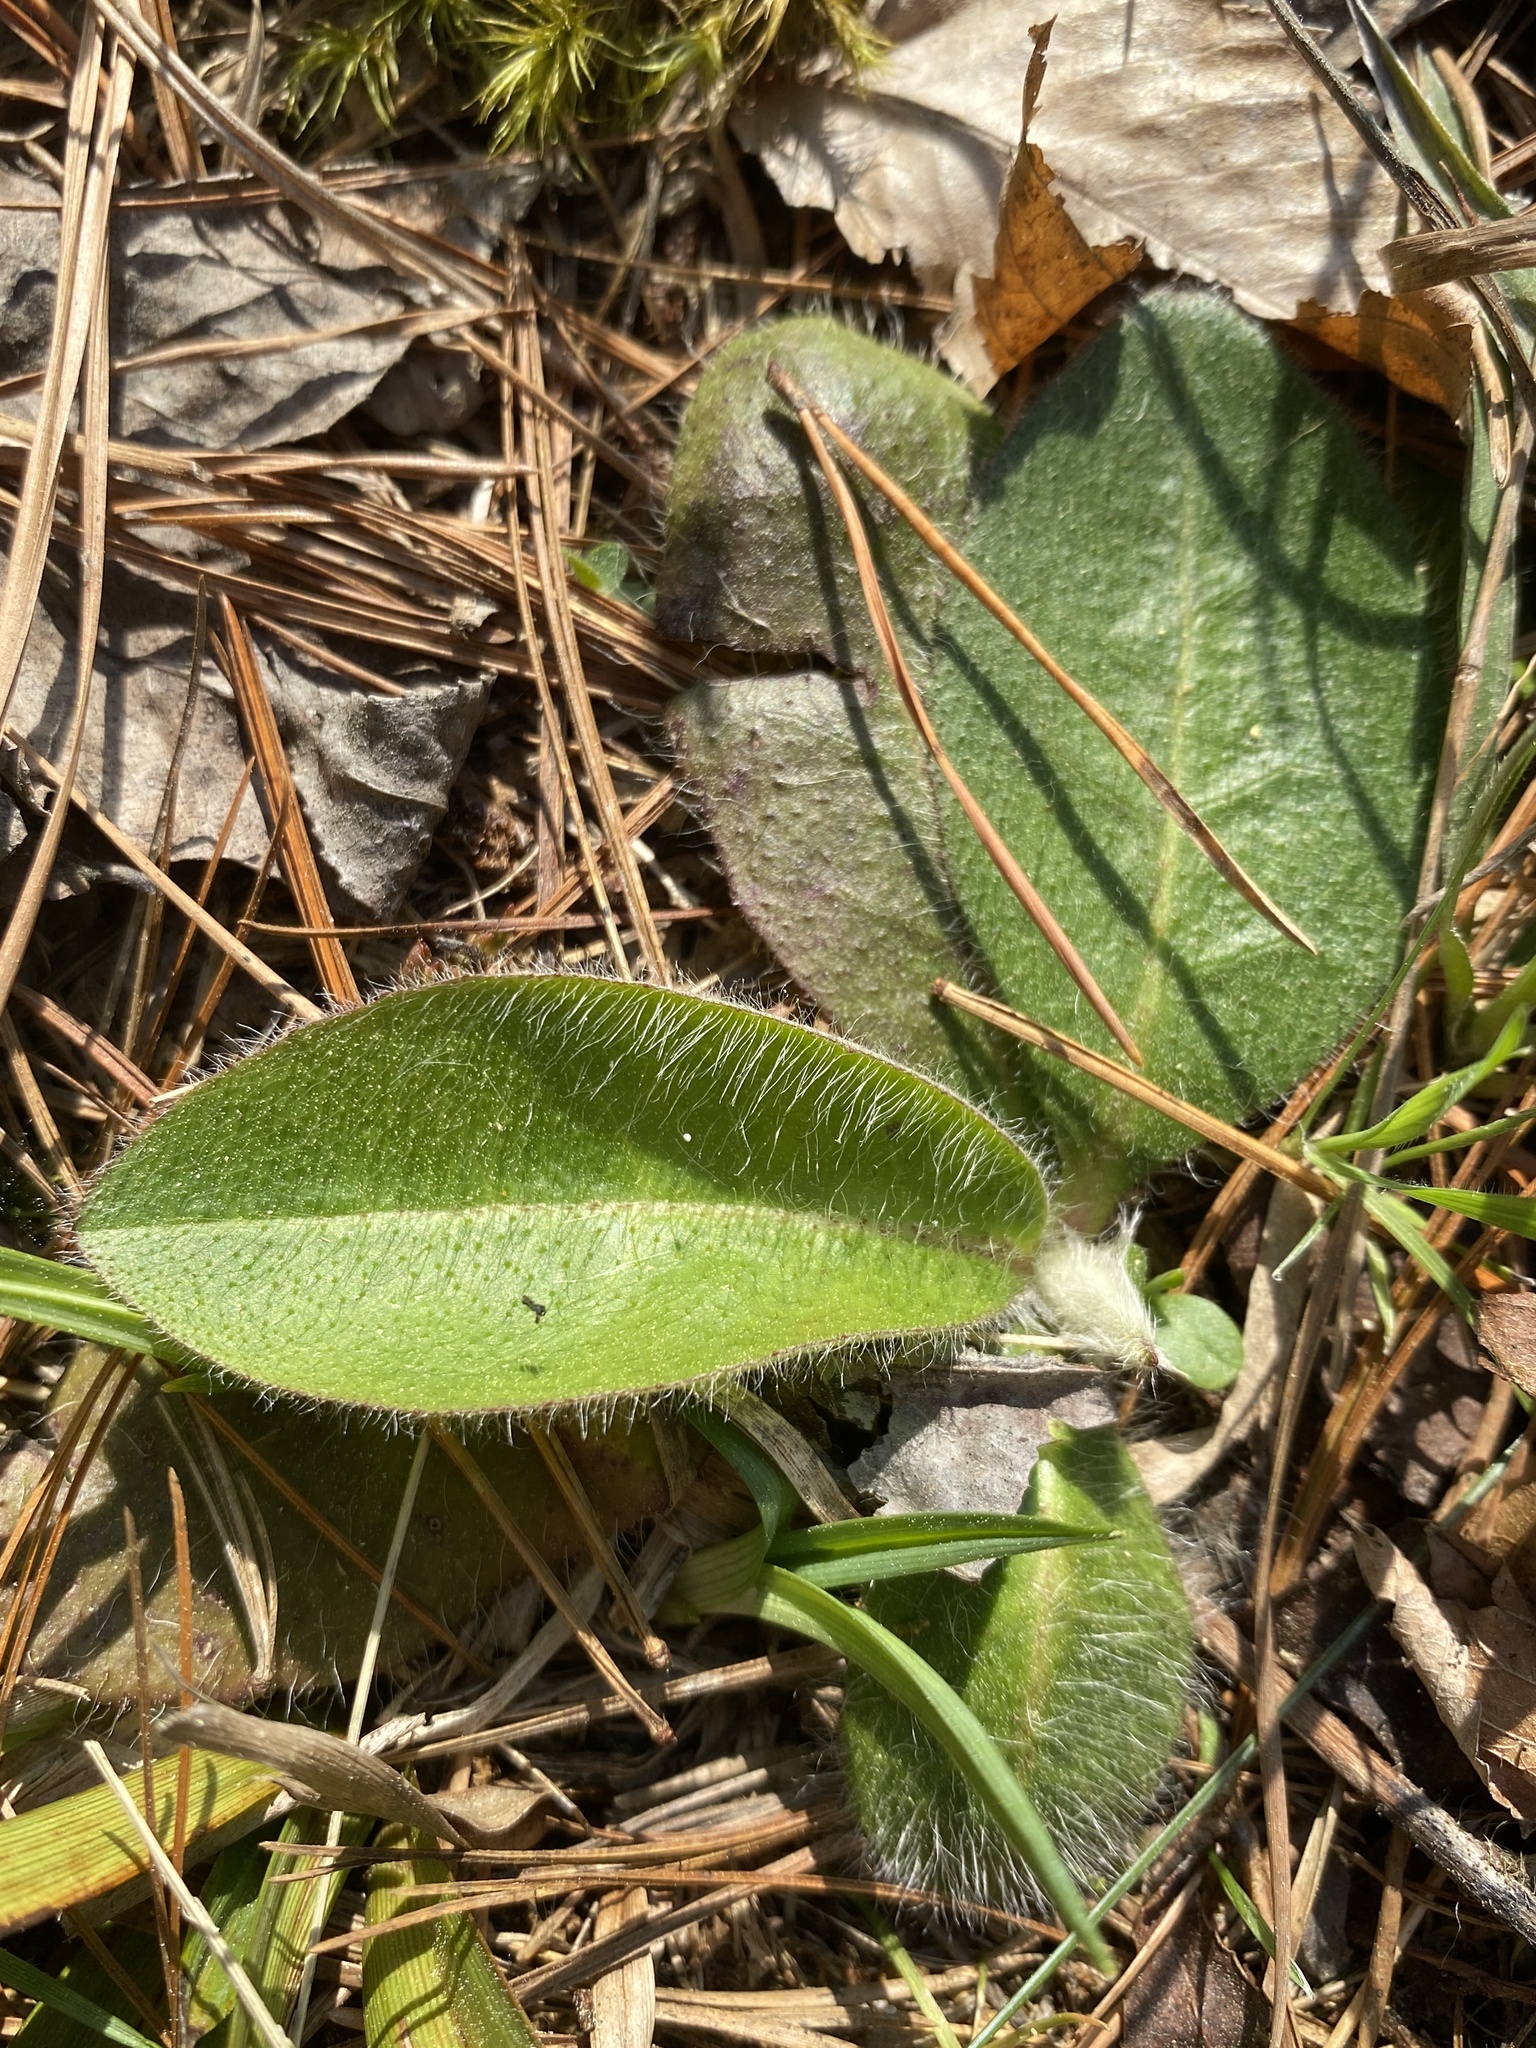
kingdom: Plantae
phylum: Tracheophyta
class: Magnoliopsida
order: Asterales
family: Asteraceae
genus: Hieracium
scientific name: Hieracium gronovii
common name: Beaked hawkweed
